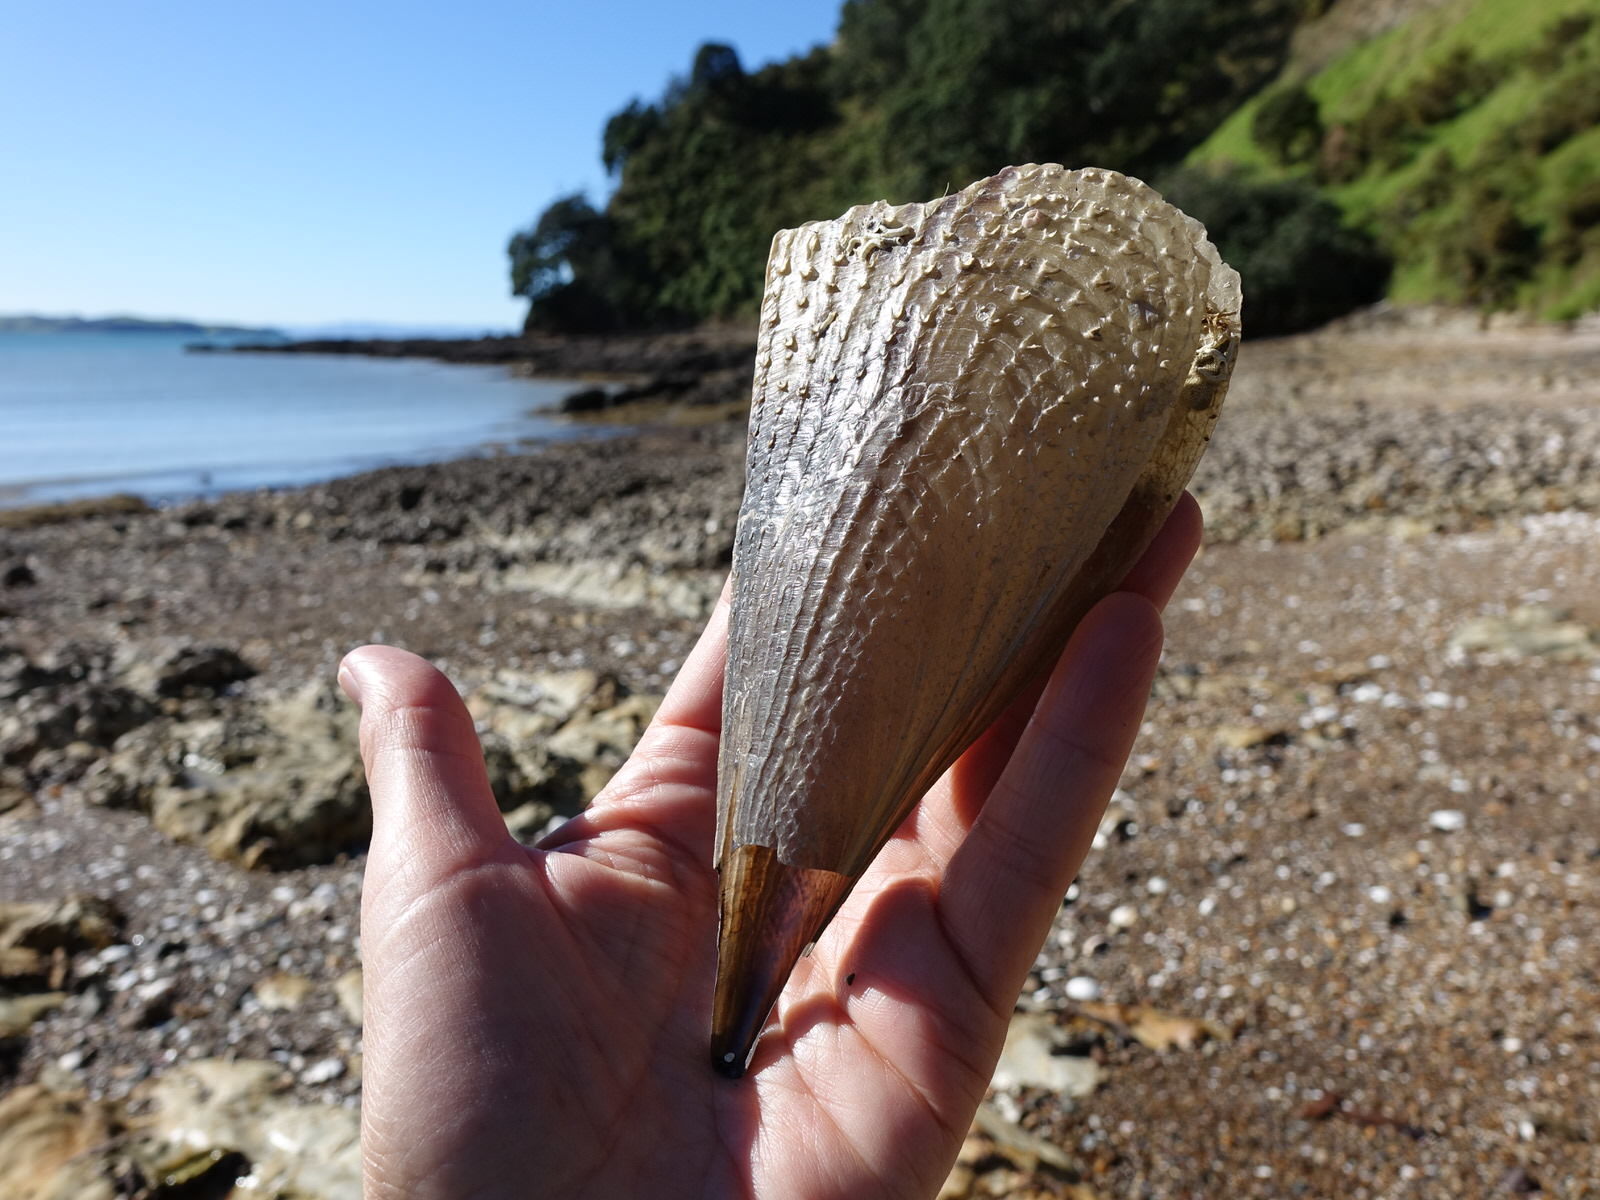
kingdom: Animalia
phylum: Mollusca
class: Bivalvia
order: Ostreida
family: Pinnidae
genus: Atrina
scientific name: Atrina zelandica
